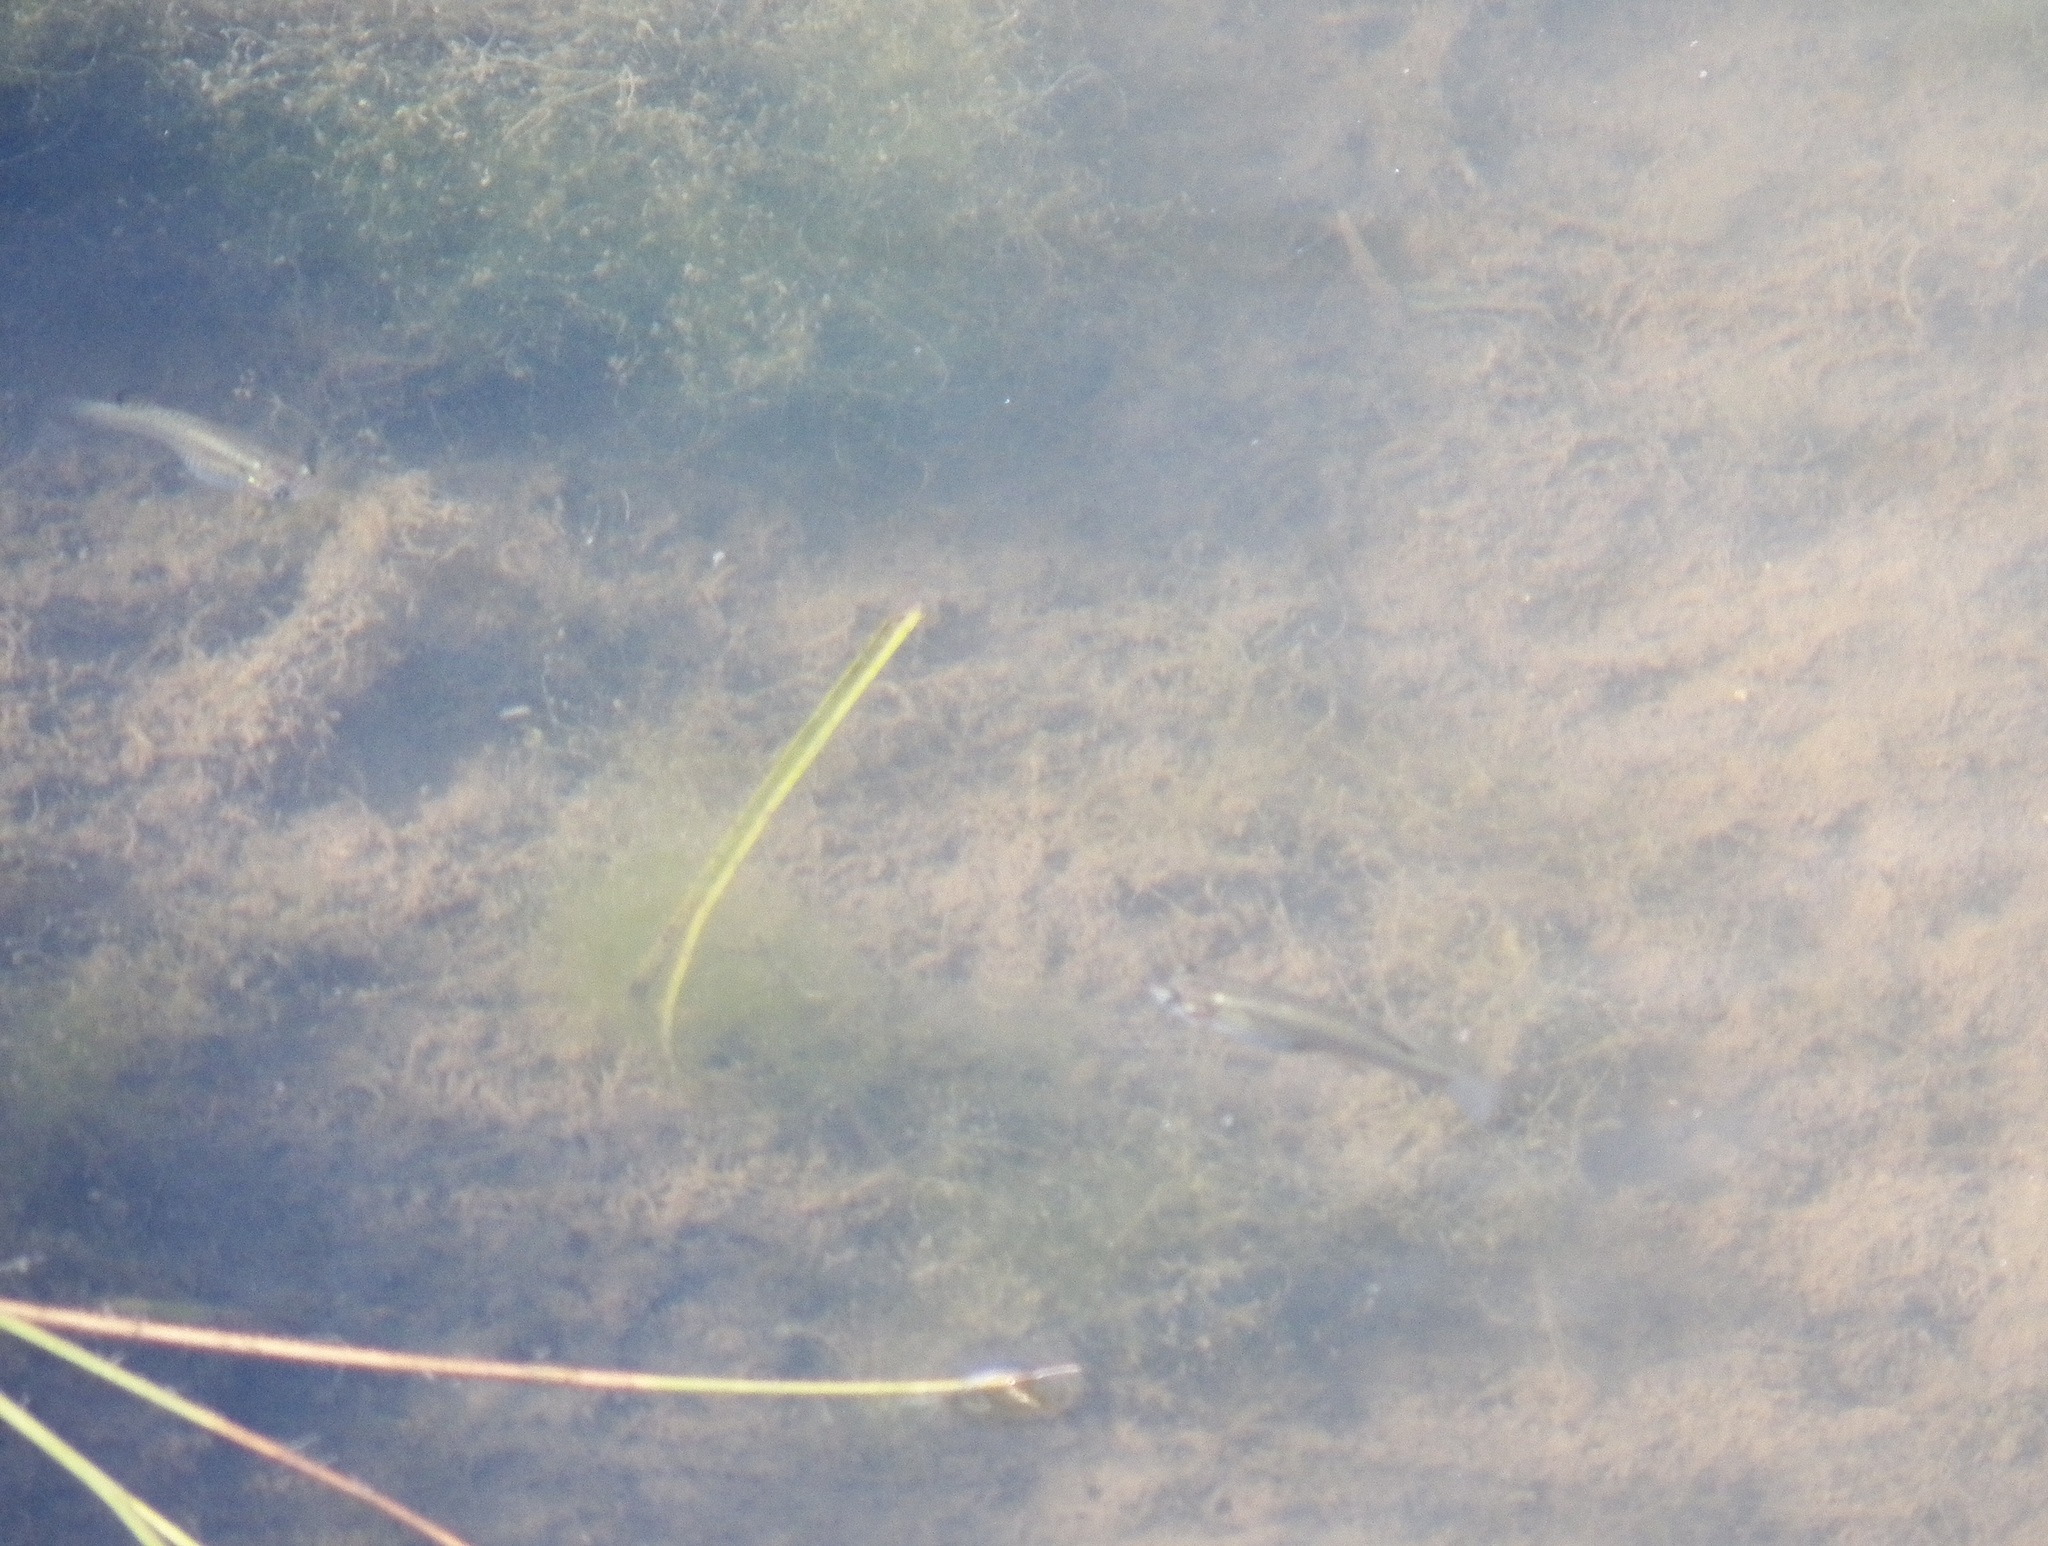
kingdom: Animalia
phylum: Chordata
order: Cyprinodontiformes
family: Poeciliidae
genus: Gambusia
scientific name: Gambusia affinis
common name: Mosquitofish
